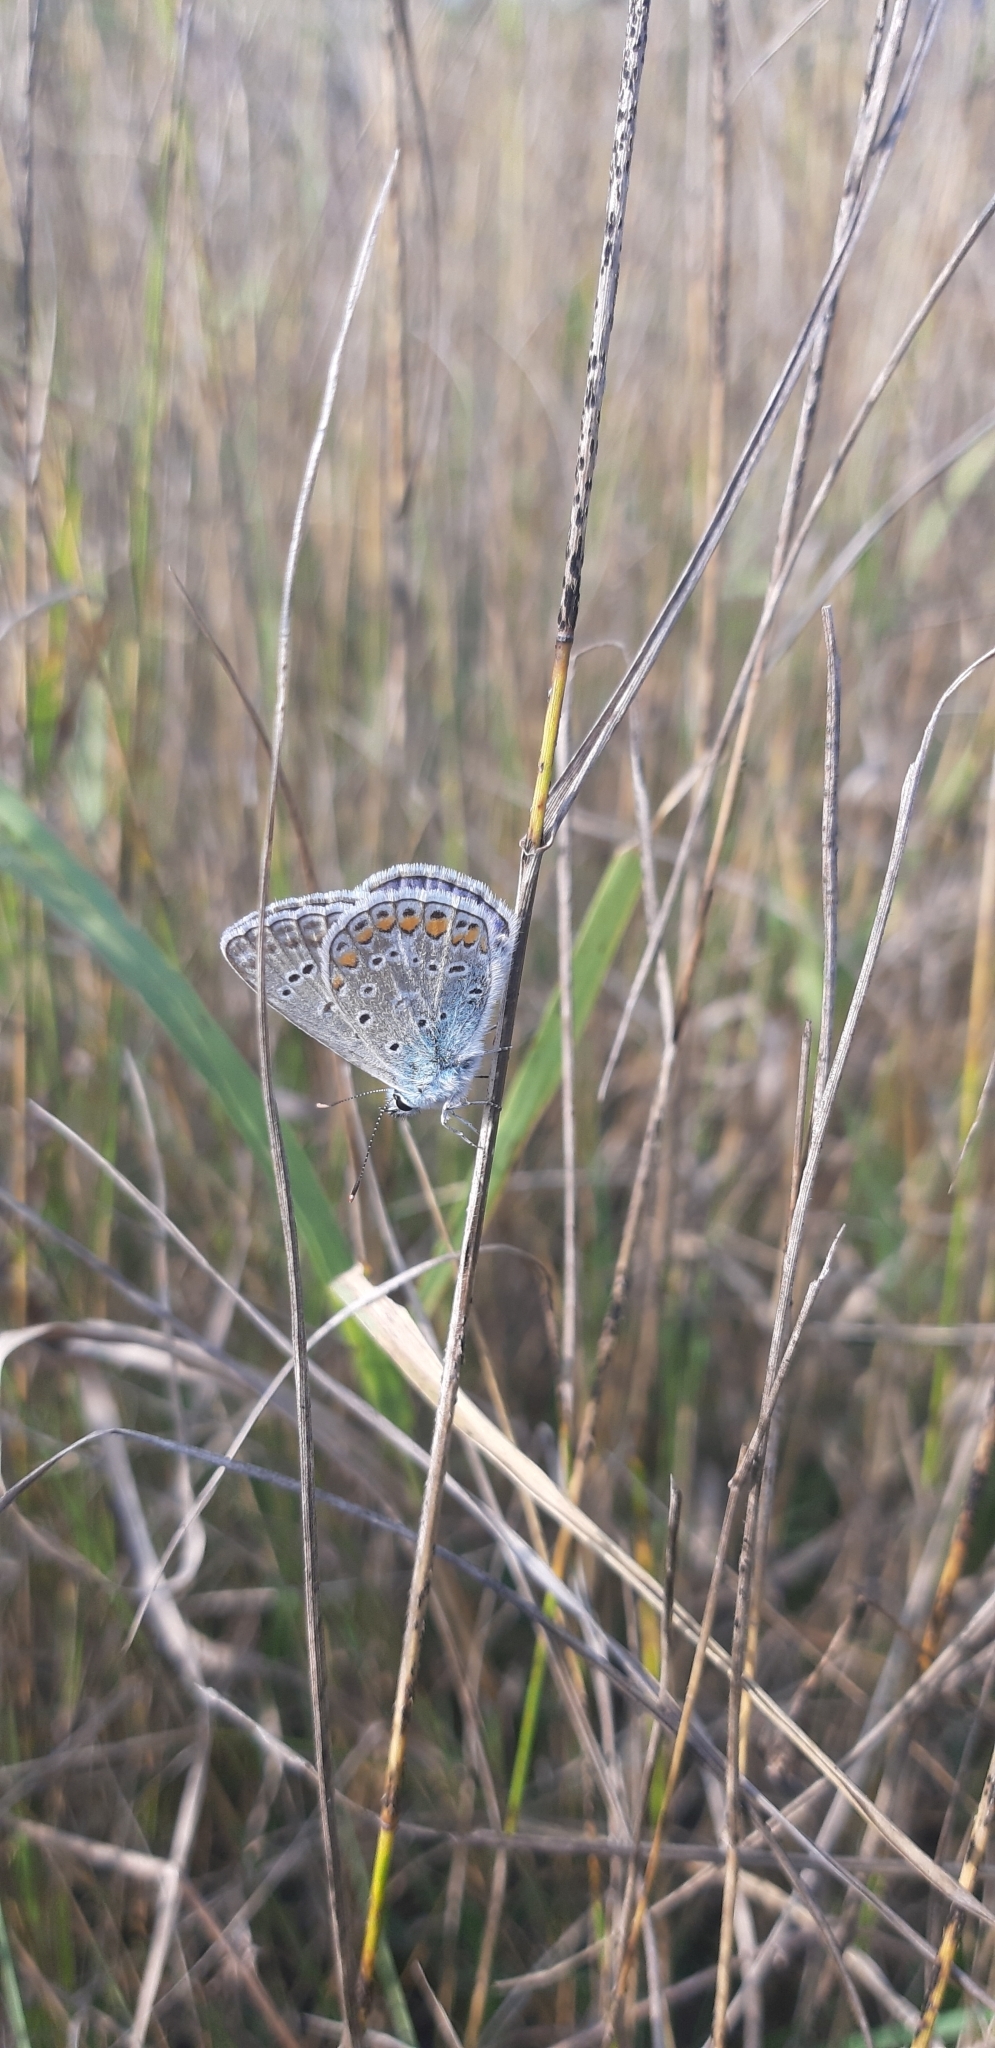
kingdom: Animalia
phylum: Arthropoda
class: Insecta
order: Lepidoptera
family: Lycaenidae
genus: Polyommatus
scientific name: Polyommatus icarus
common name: Common blue
